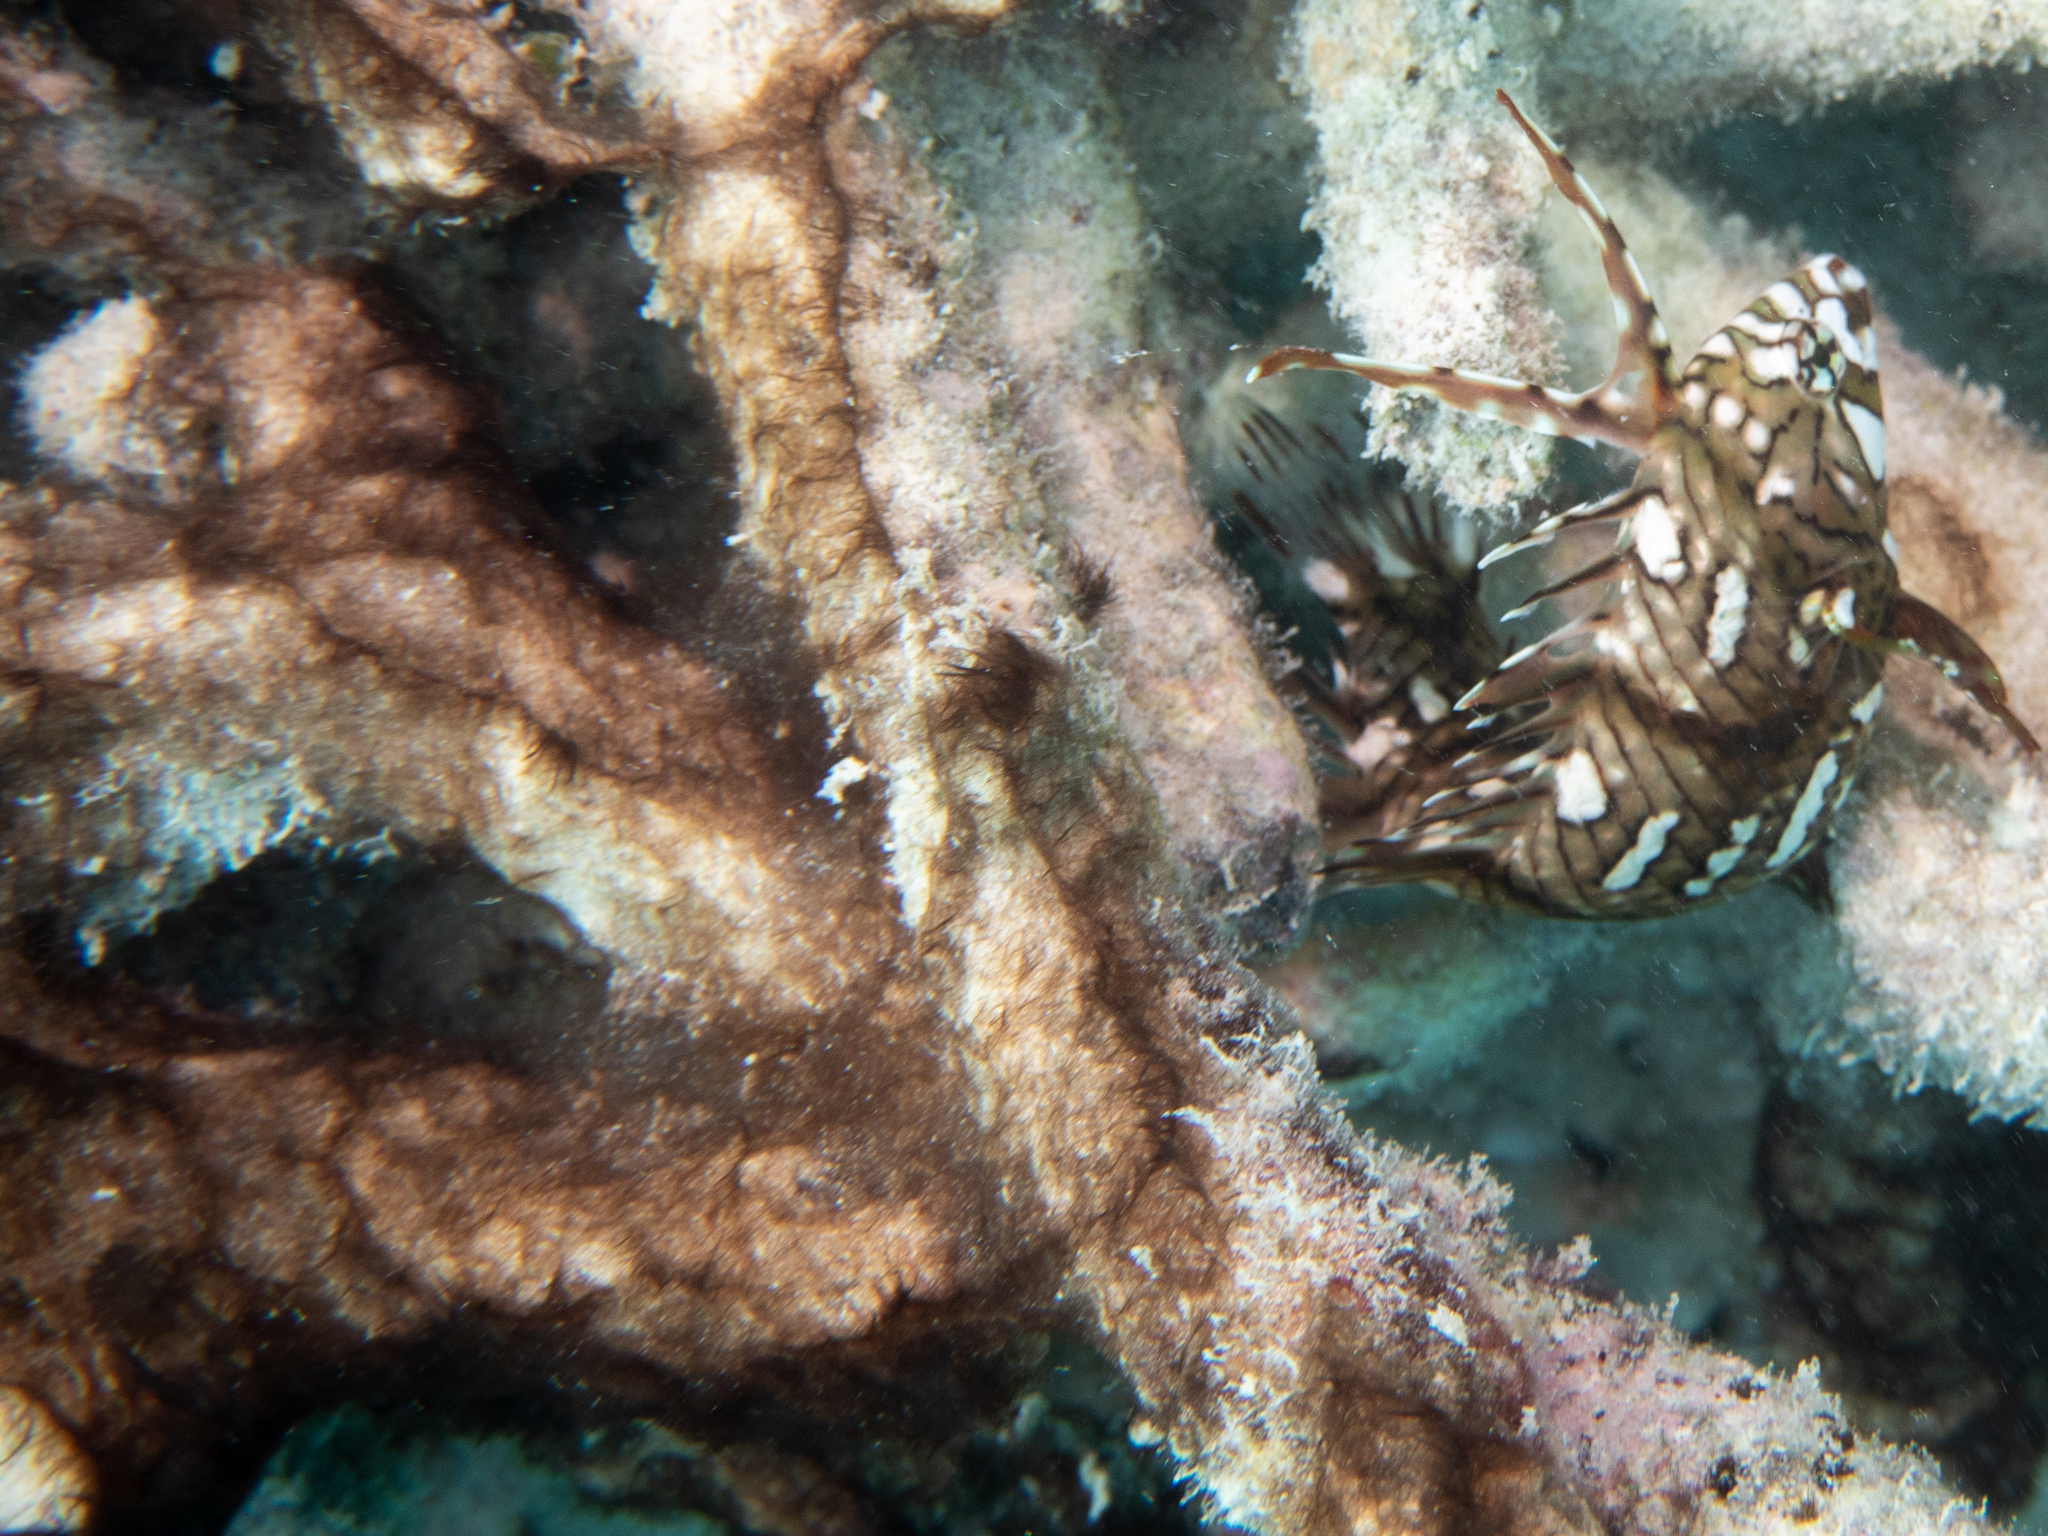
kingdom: Animalia
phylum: Chordata
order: Perciformes
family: Labridae
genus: Novaculichthys
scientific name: Novaculichthys taeniourus
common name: Rockmover wrasse
